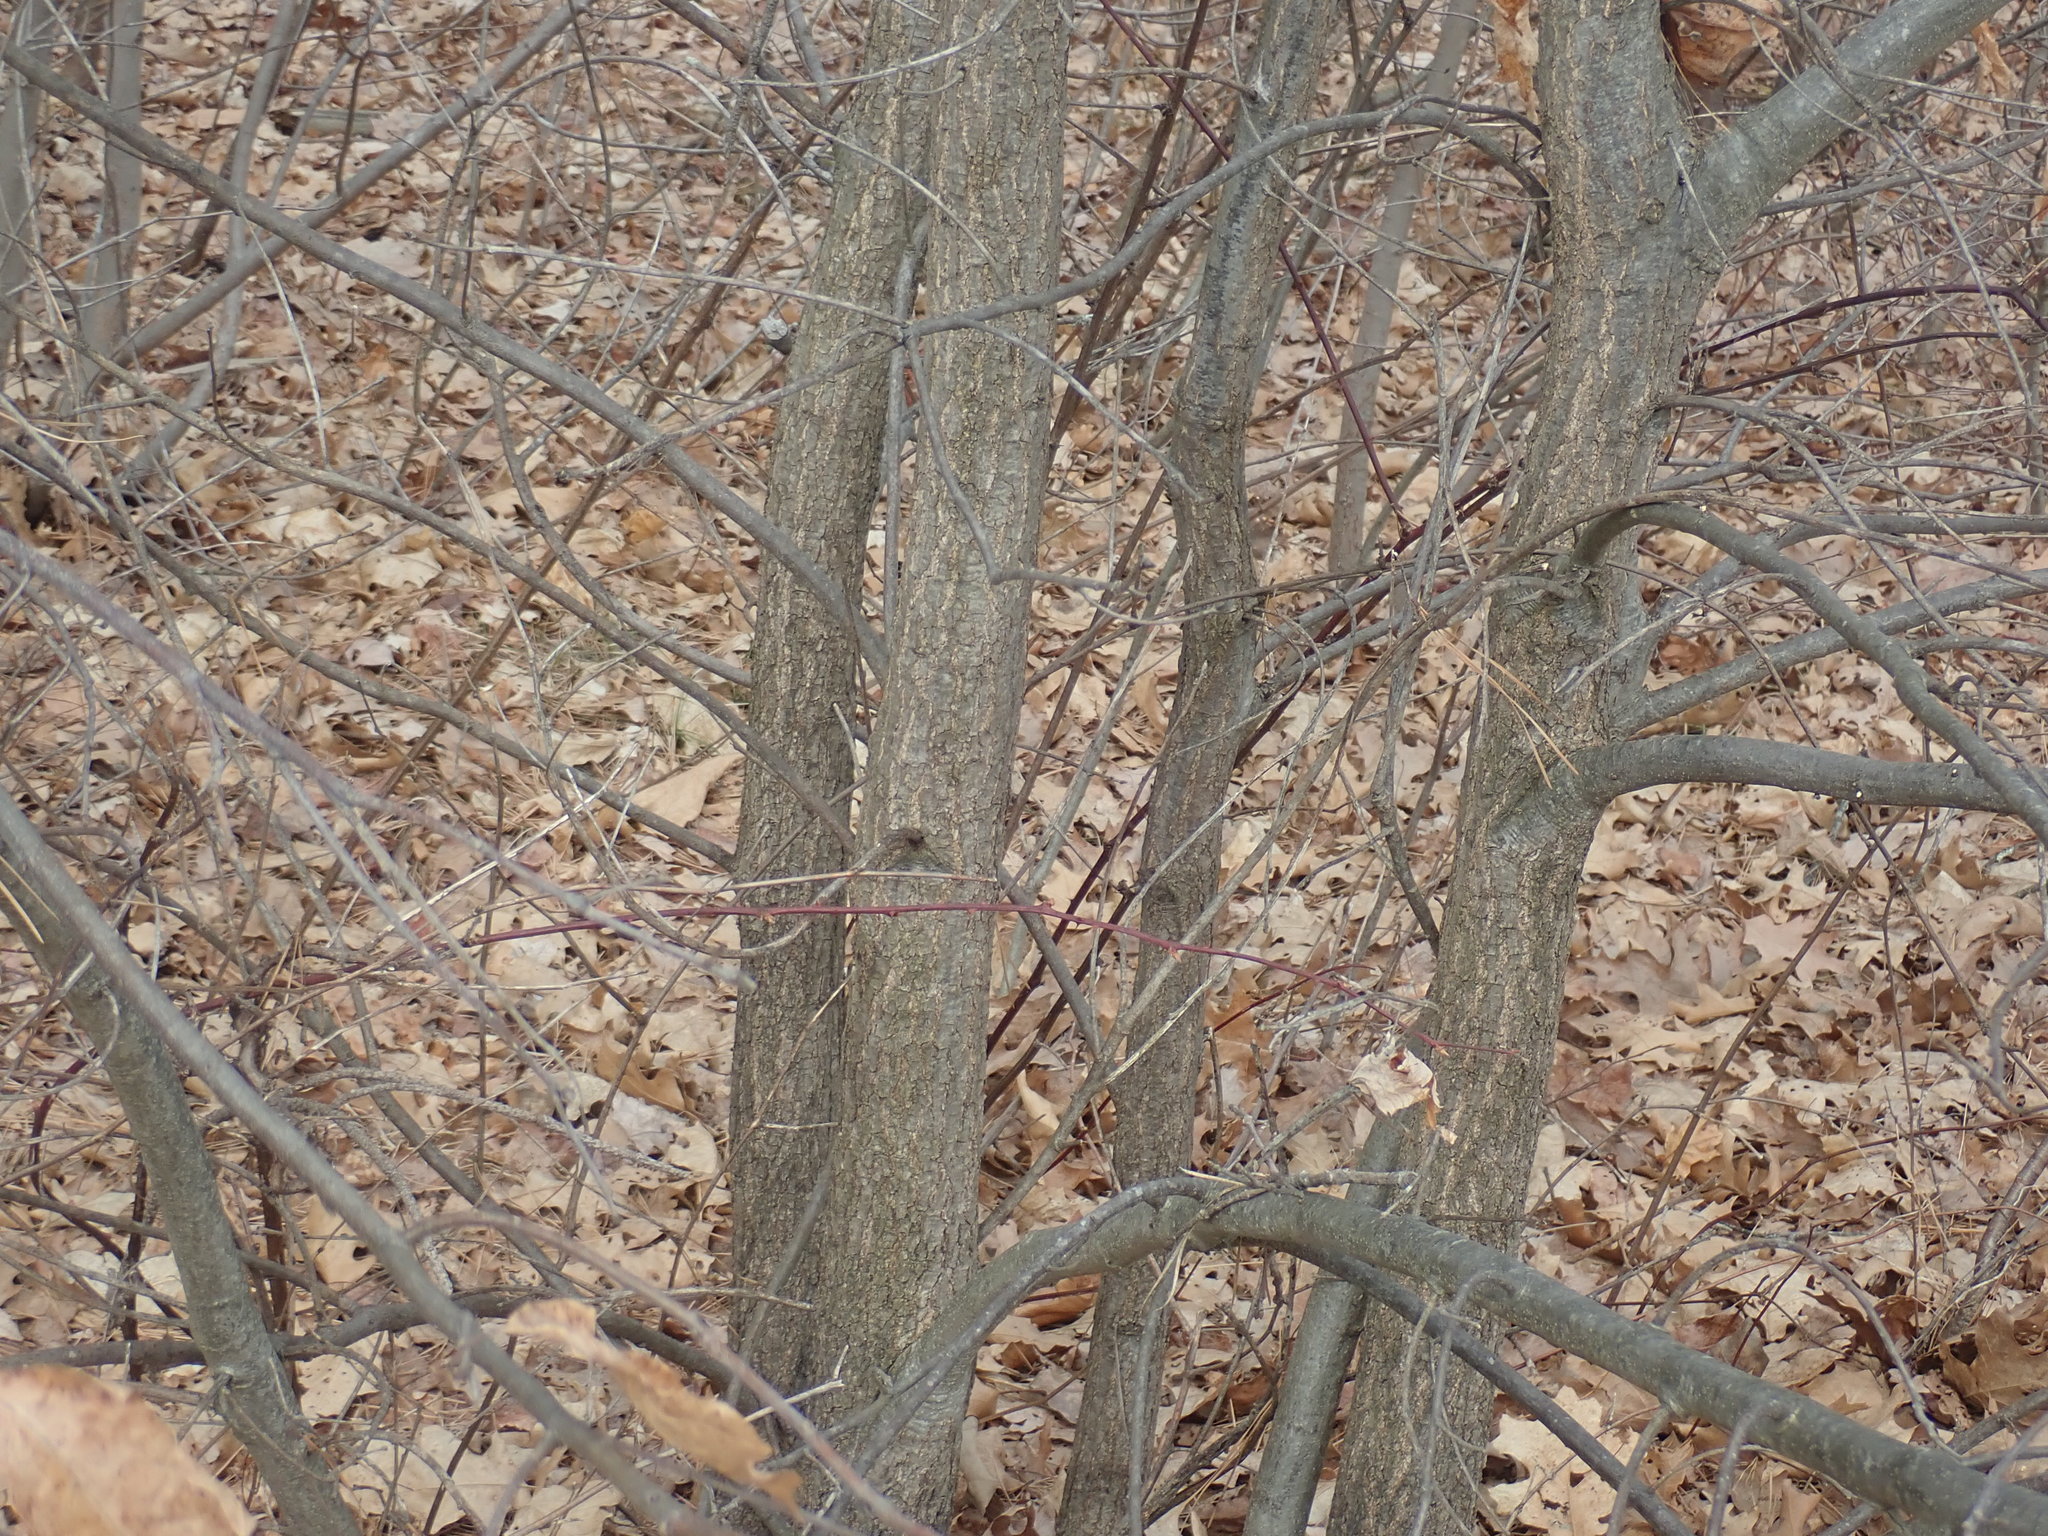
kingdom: Plantae
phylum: Tracheophyta
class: Magnoliopsida
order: Fagales
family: Fagaceae
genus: Quercus
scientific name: Quercus velutina
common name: Black oak
